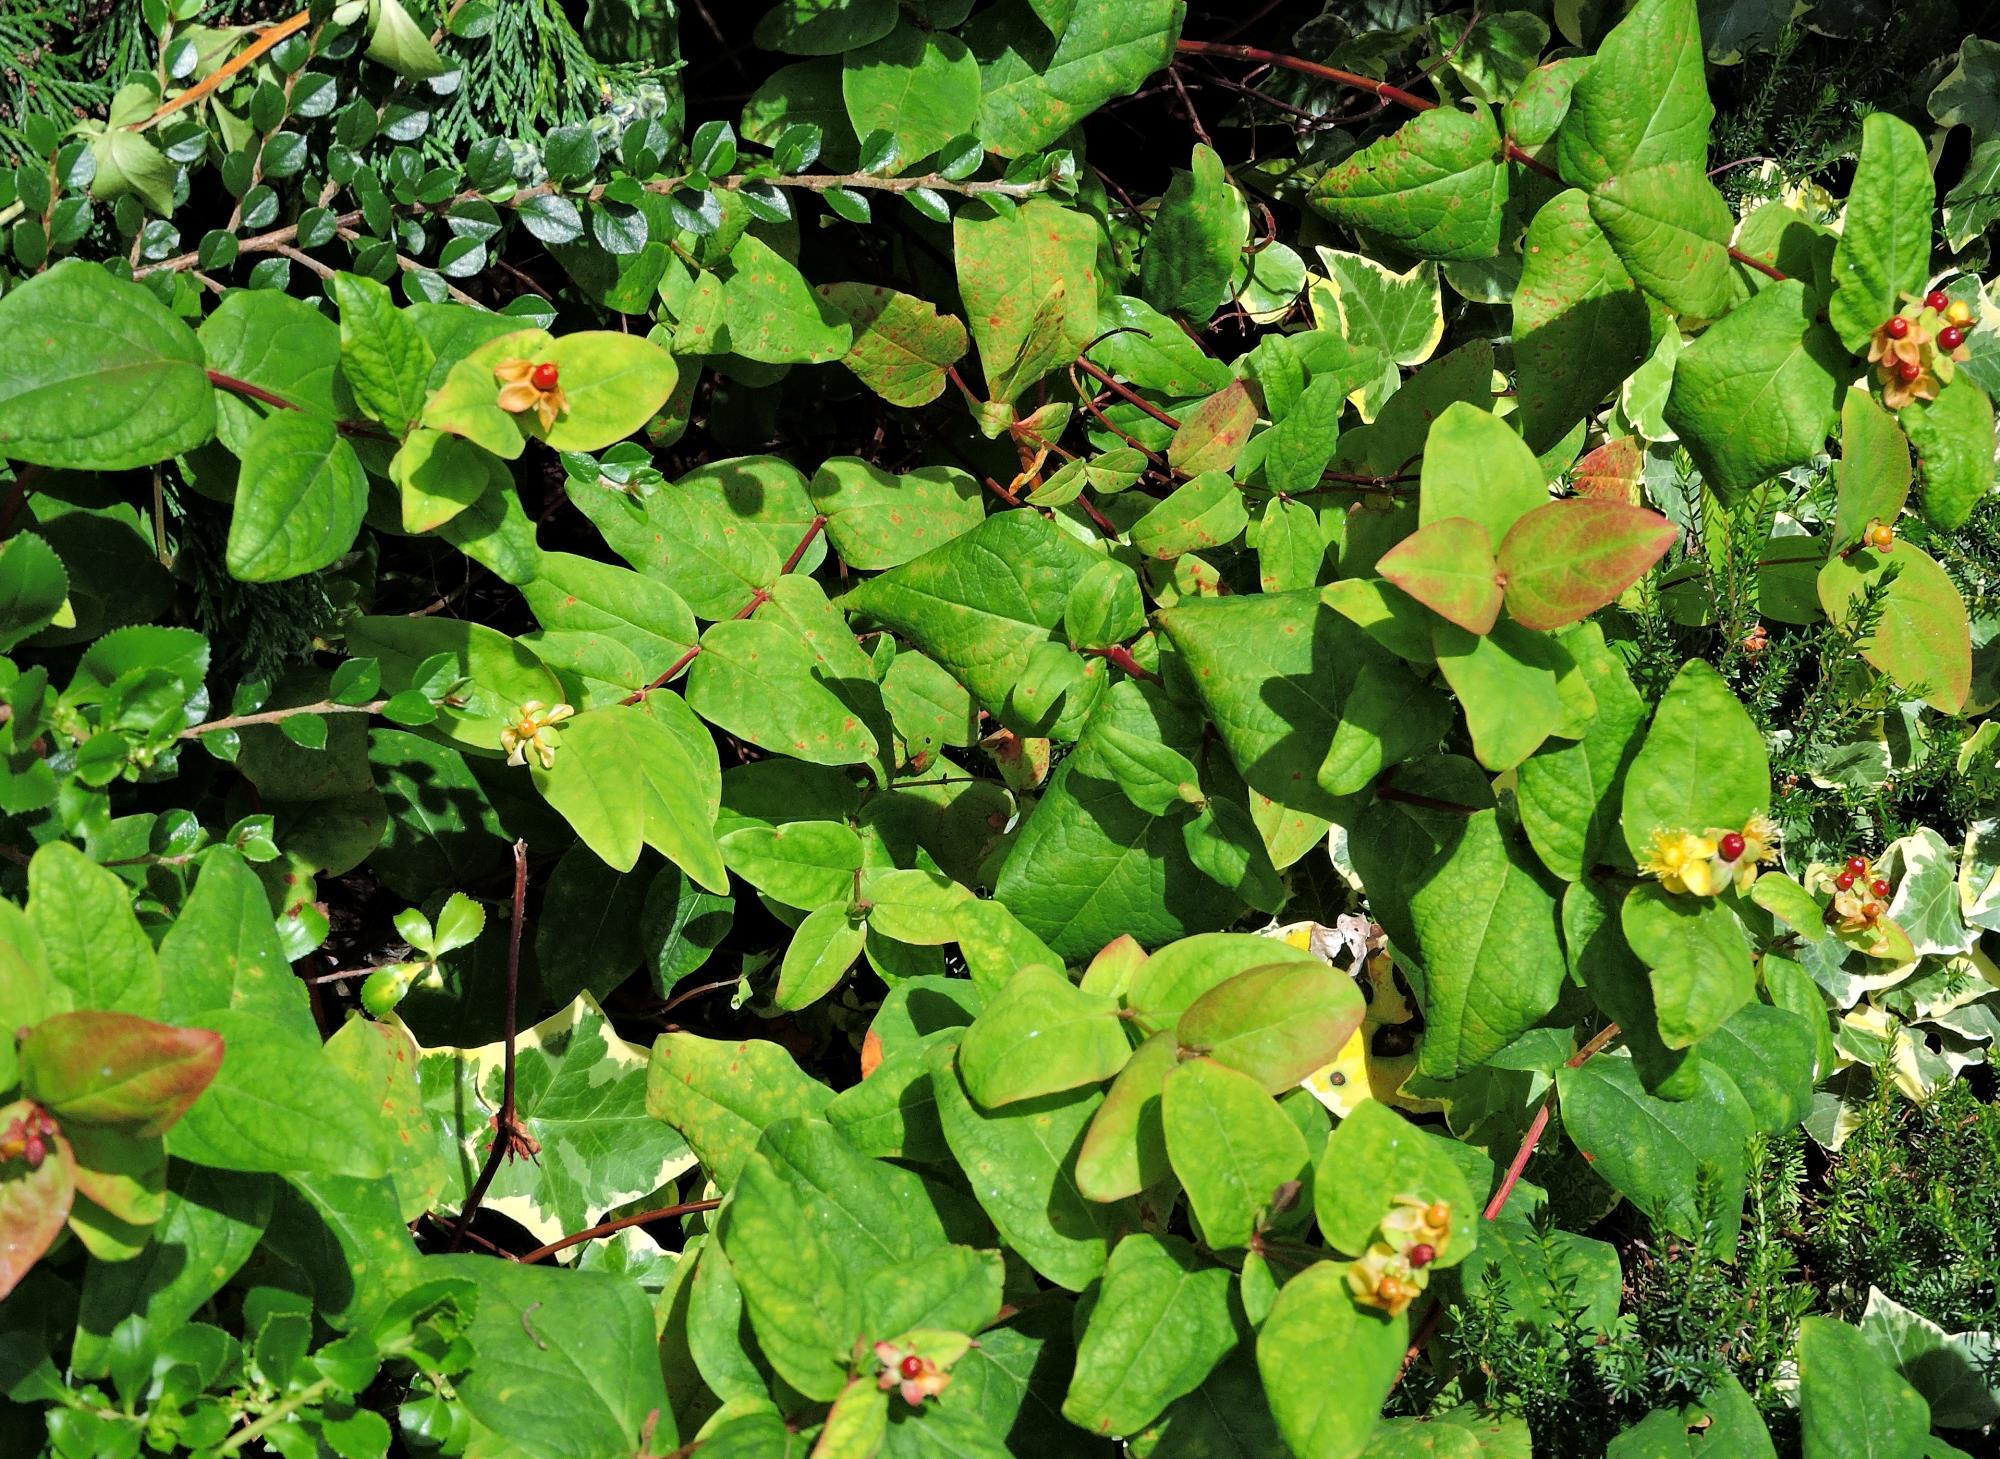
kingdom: Plantae
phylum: Tracheophyta
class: Magnoliopsida
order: Malpighiales
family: Hypericaceae
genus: Hypericum
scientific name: Hypericum androsaemum
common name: Sweet-amber
